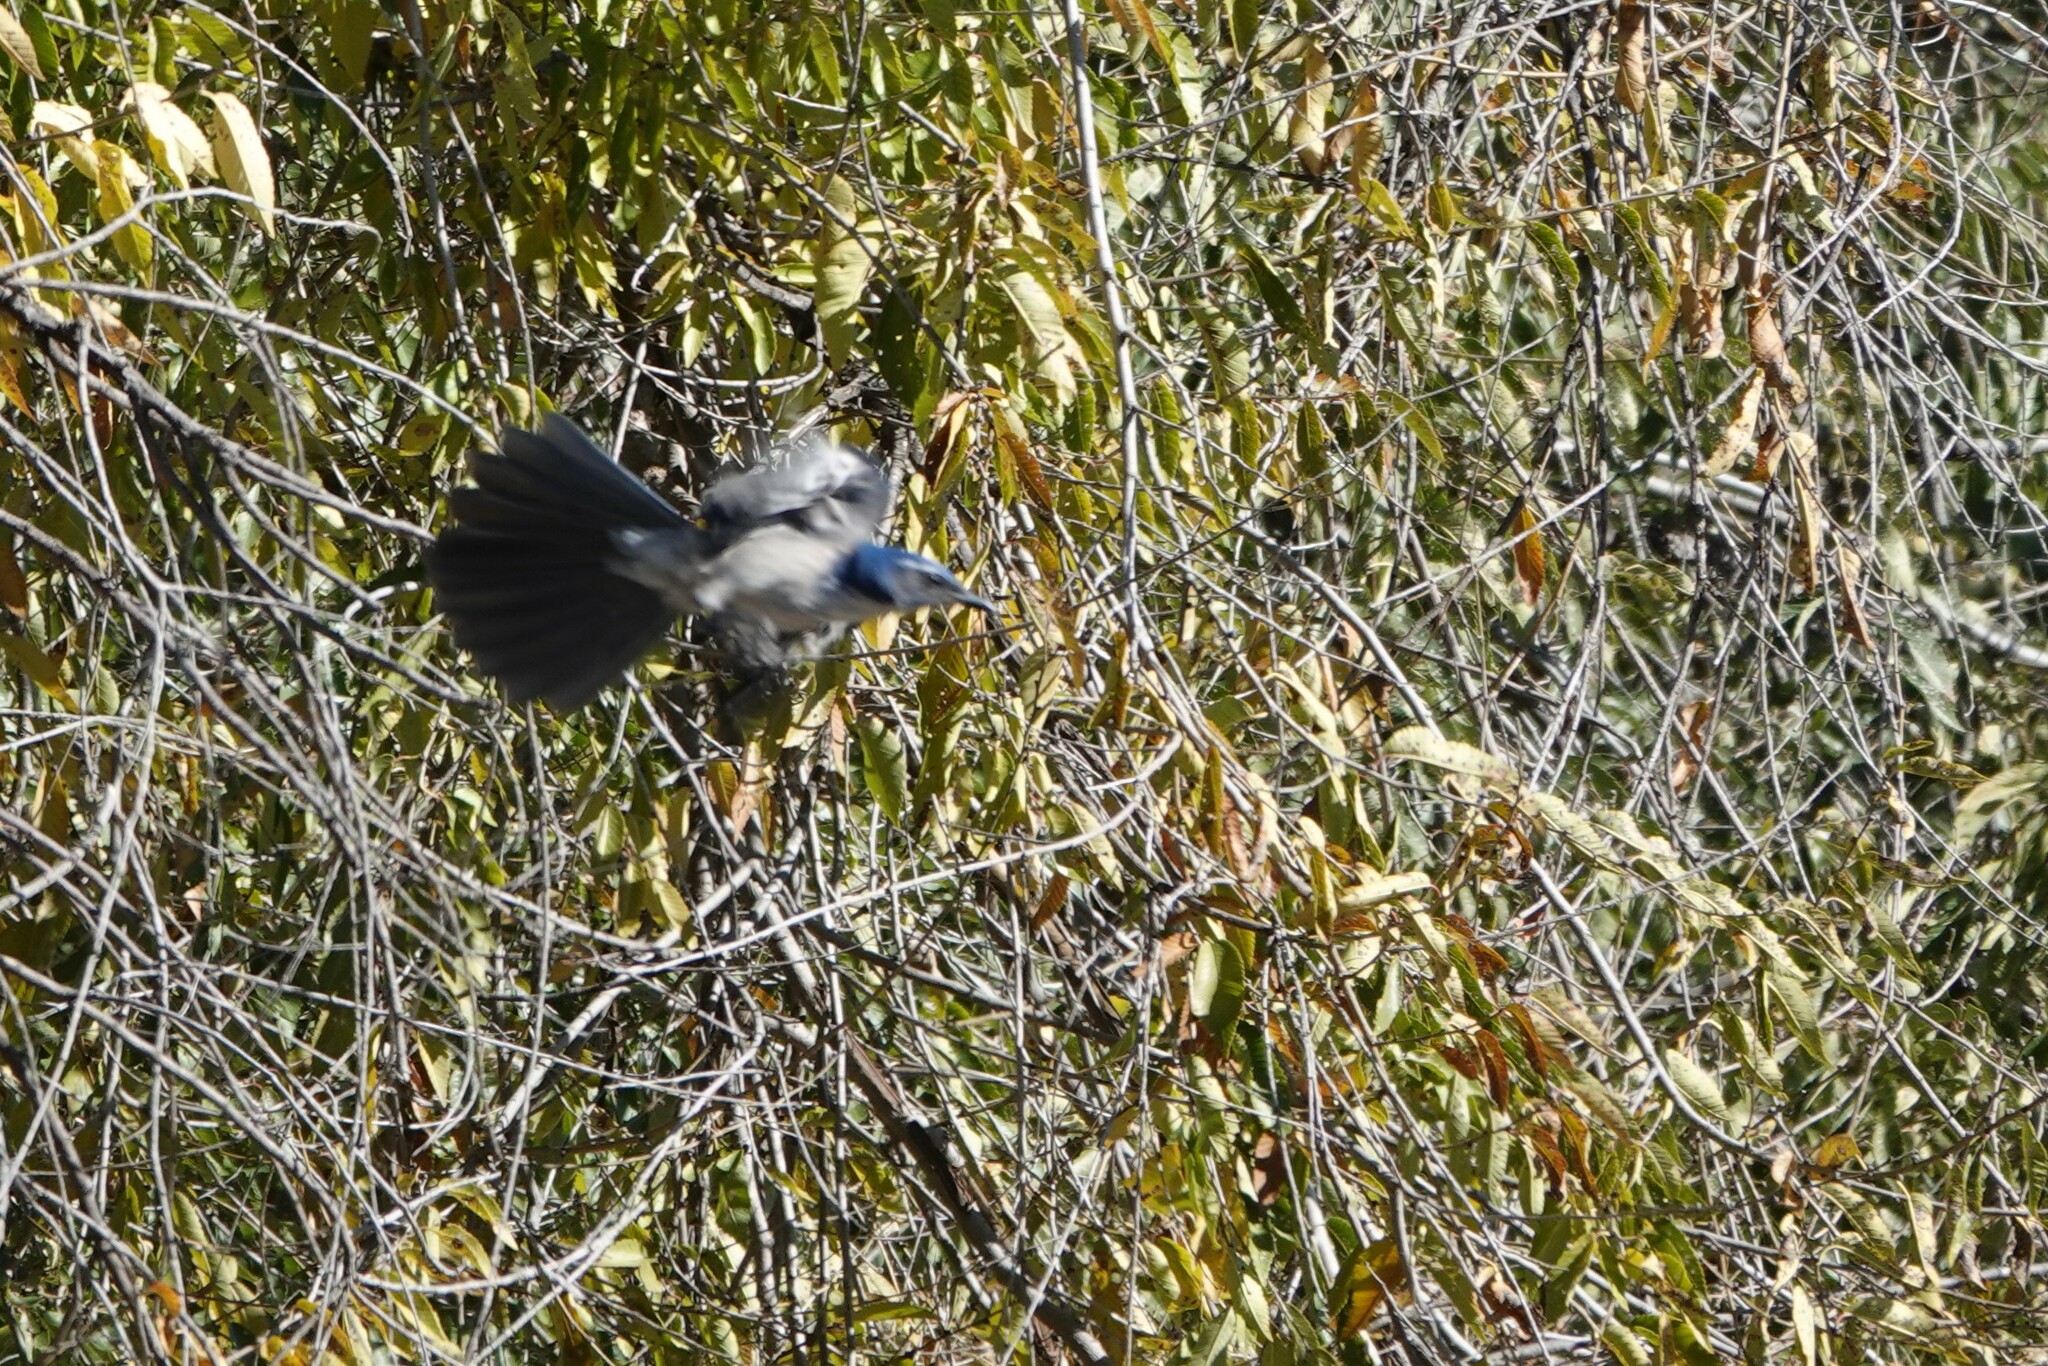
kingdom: Animalia
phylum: Chordata
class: Aves
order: Passeriformes
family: Corvidae
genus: Aphelocoma
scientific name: Aphelocoma californica
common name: California scrub-jay
